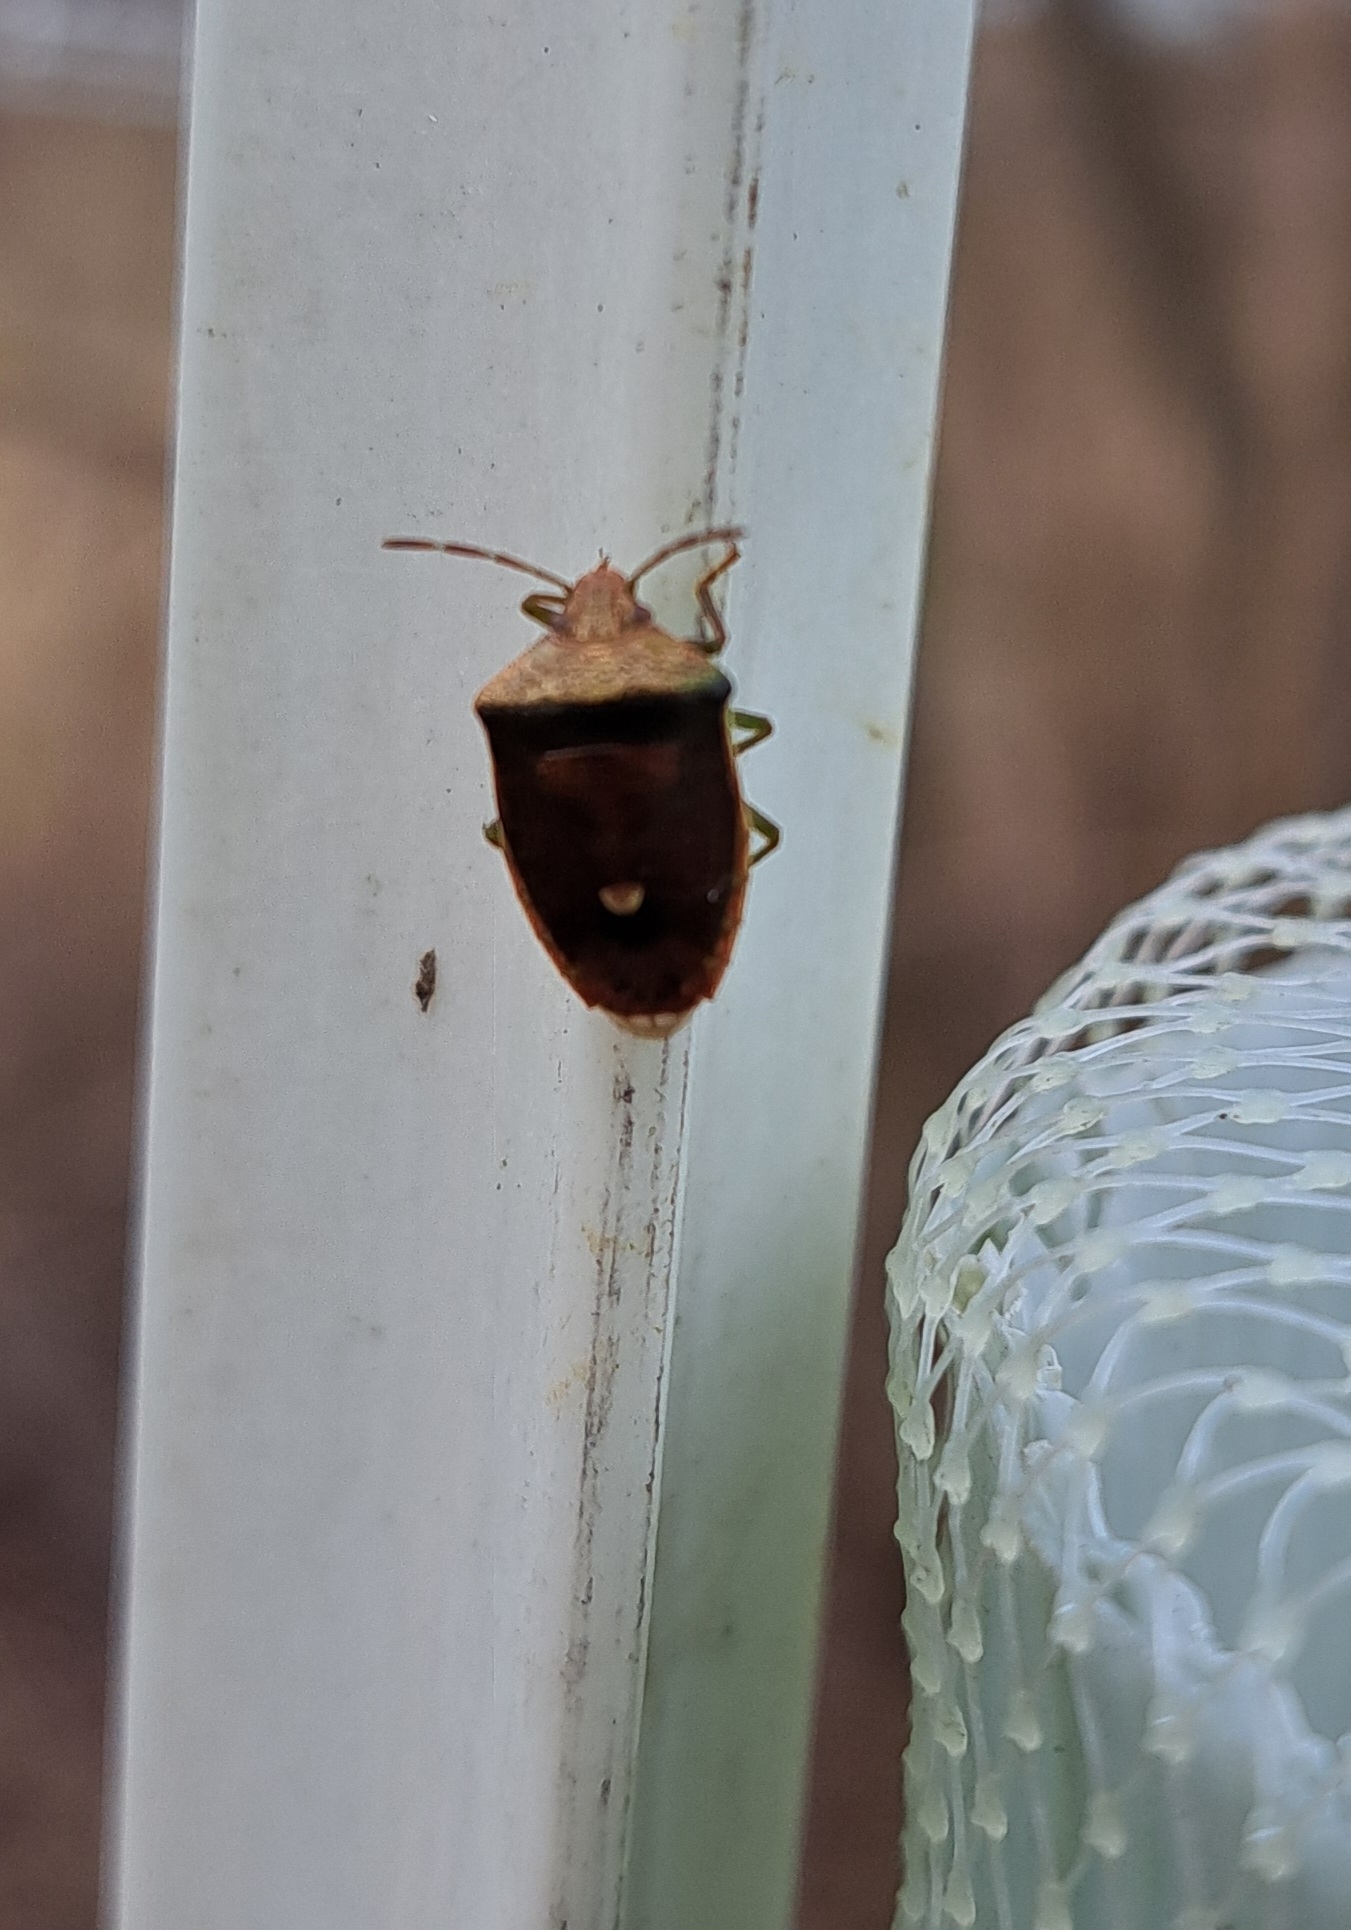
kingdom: Animalia
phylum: Arthropoda
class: Insecta
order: Hemiptera
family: Pentatomidae
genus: Banasa
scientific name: Banasa calva
